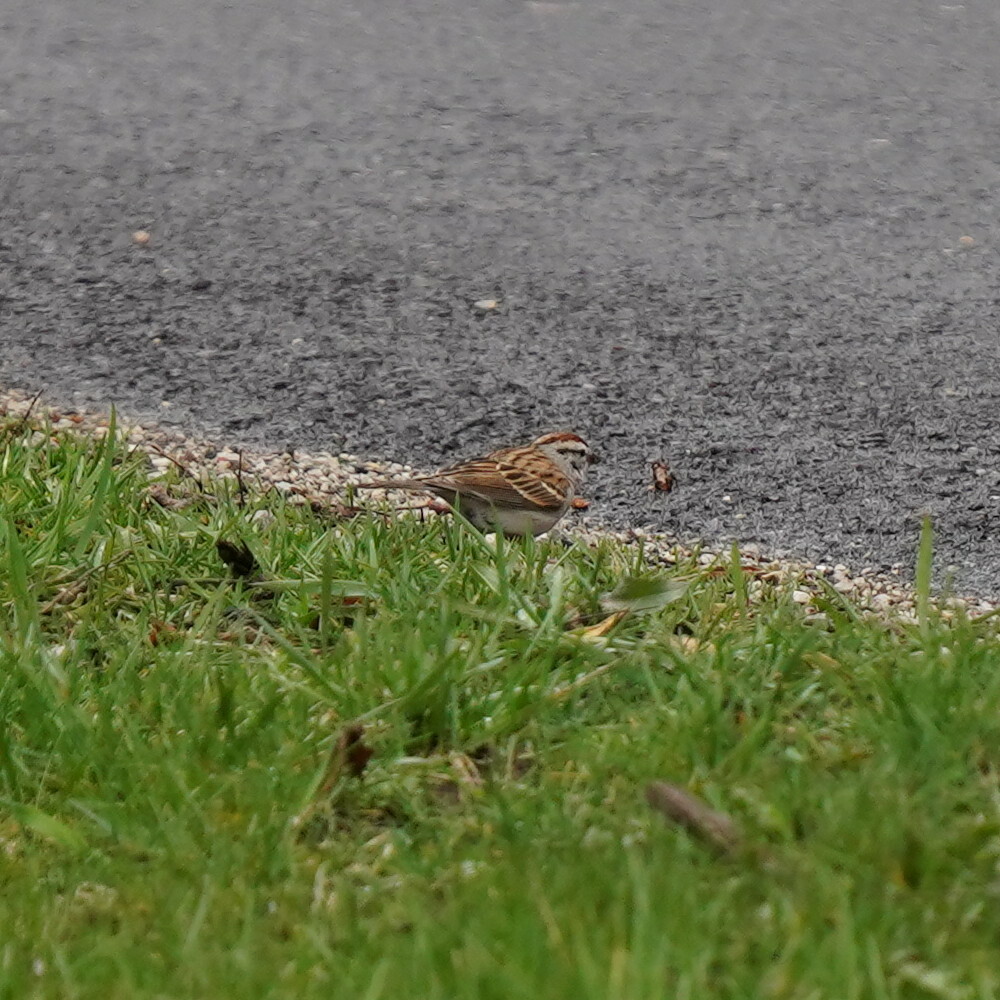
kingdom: Animalia
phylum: Chordata
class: Aves
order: Passeriformes
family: Passerellidae
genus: Spizella
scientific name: Spizella passerina
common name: Chipping sparrow
